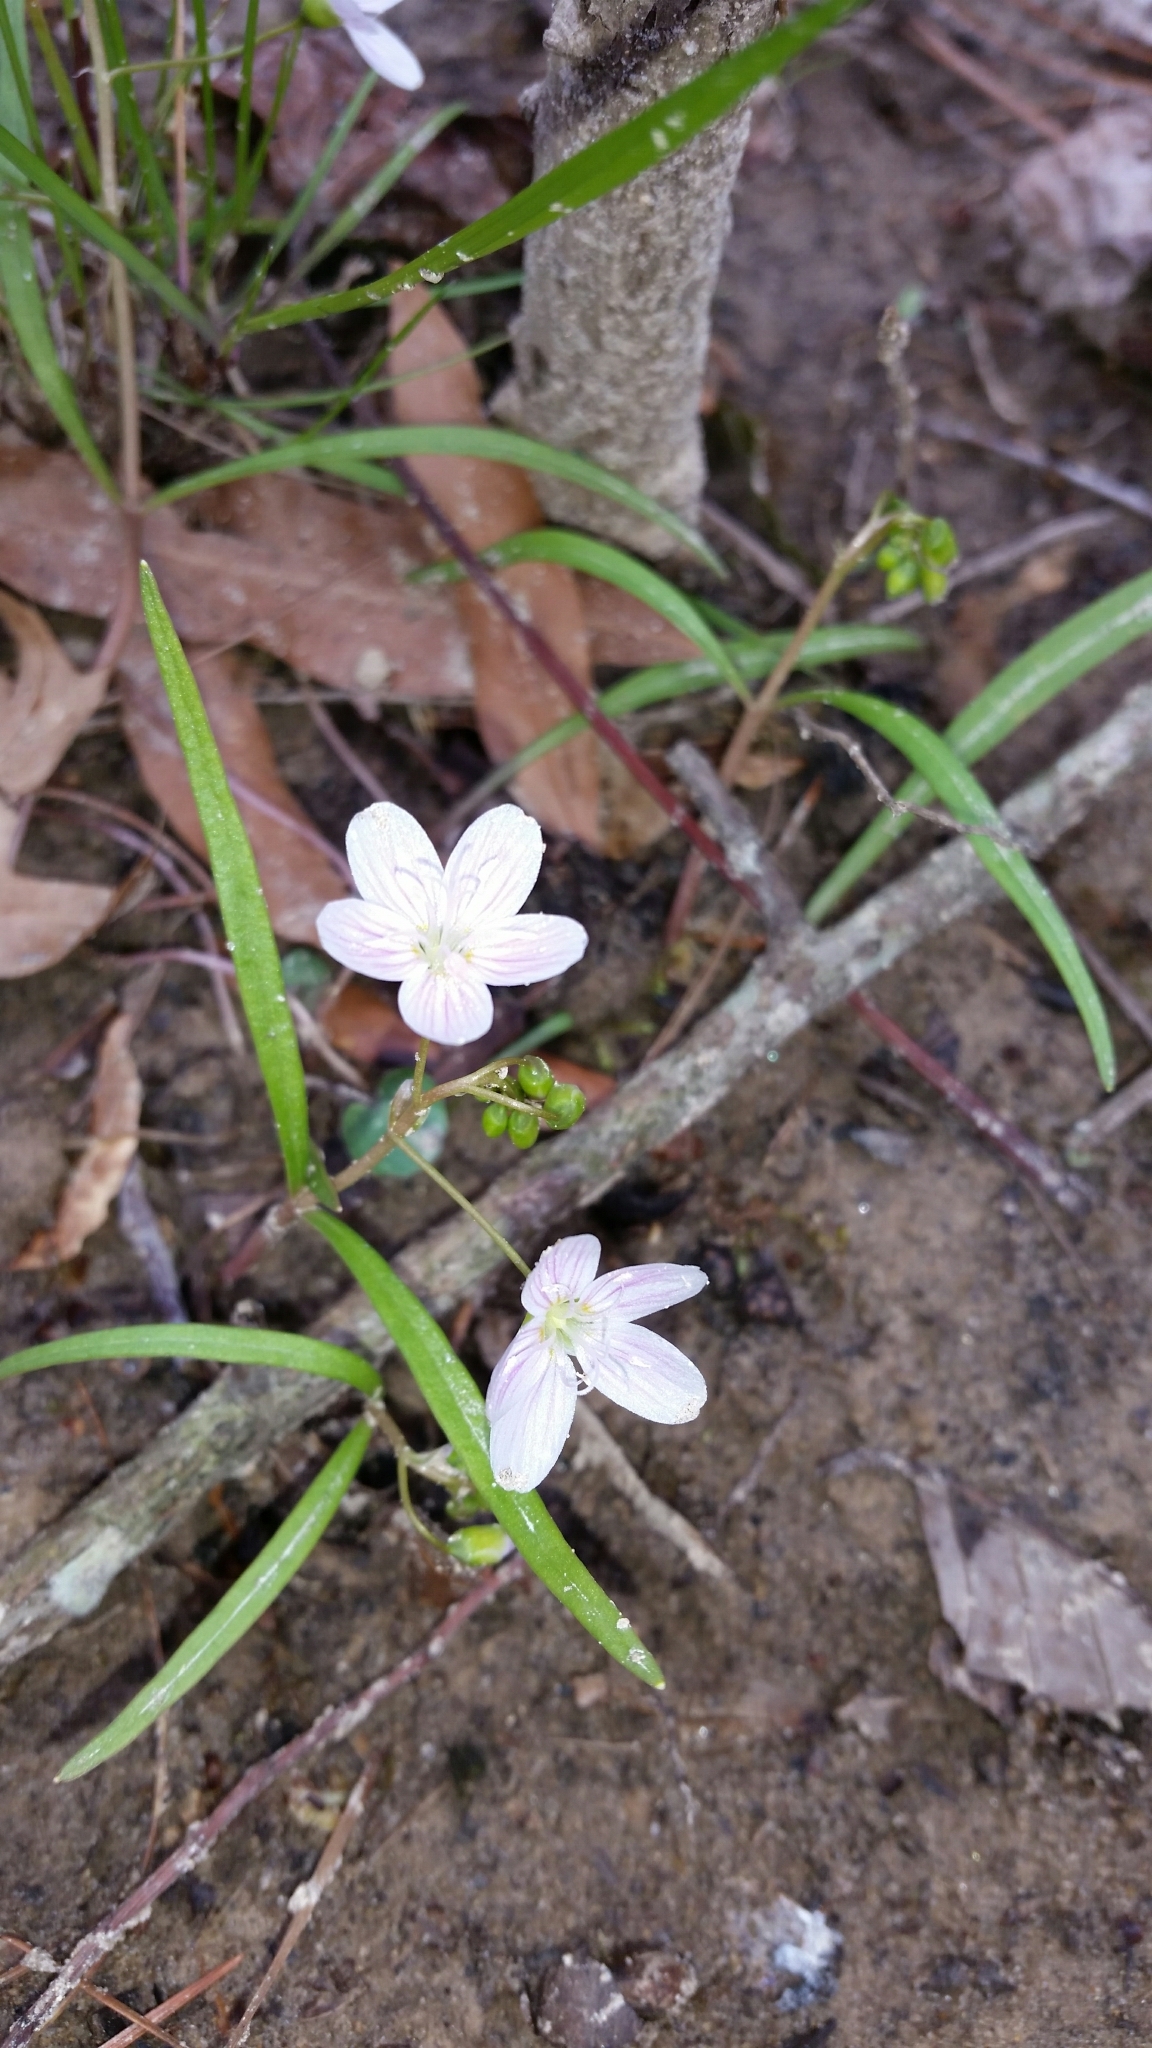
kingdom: Plantae
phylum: Tracheophyta
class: Magnoliopsida
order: Caryophyllales
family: Montiaceae
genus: Claytonia
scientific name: Claytonia virginica
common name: Virginia springbeauty
